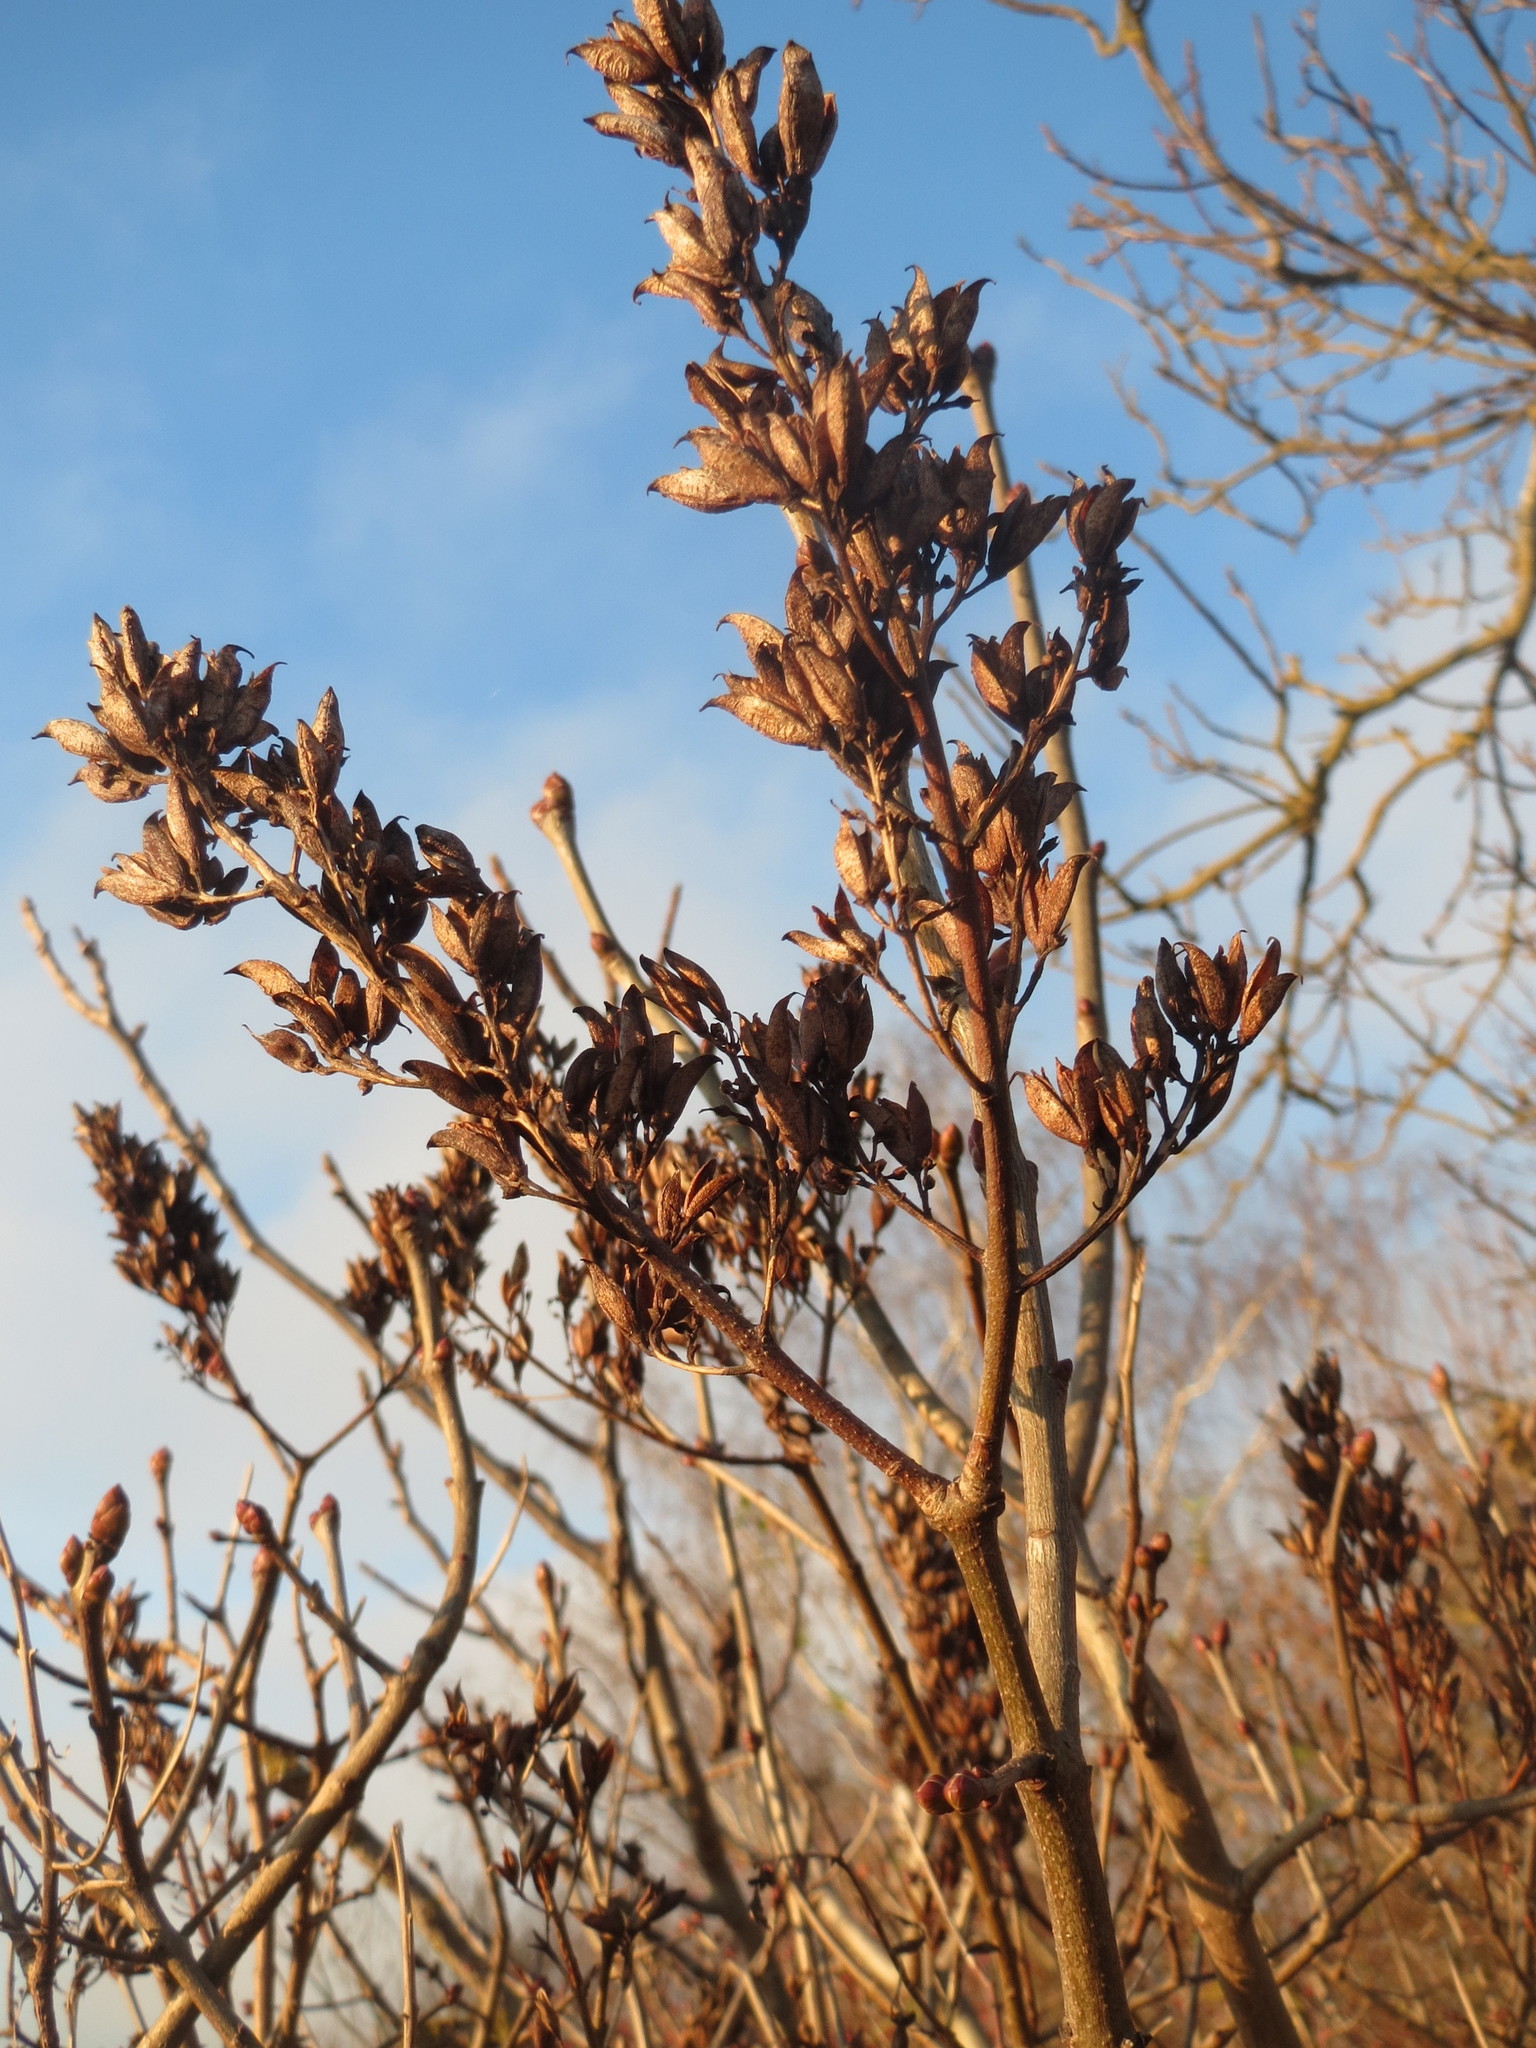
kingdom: Plantae
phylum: Tracheophyta
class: Magnoliopsida
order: Lamiales
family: Oleaceae
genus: Syringa
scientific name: Syringa vulgaris
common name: Common lilac
